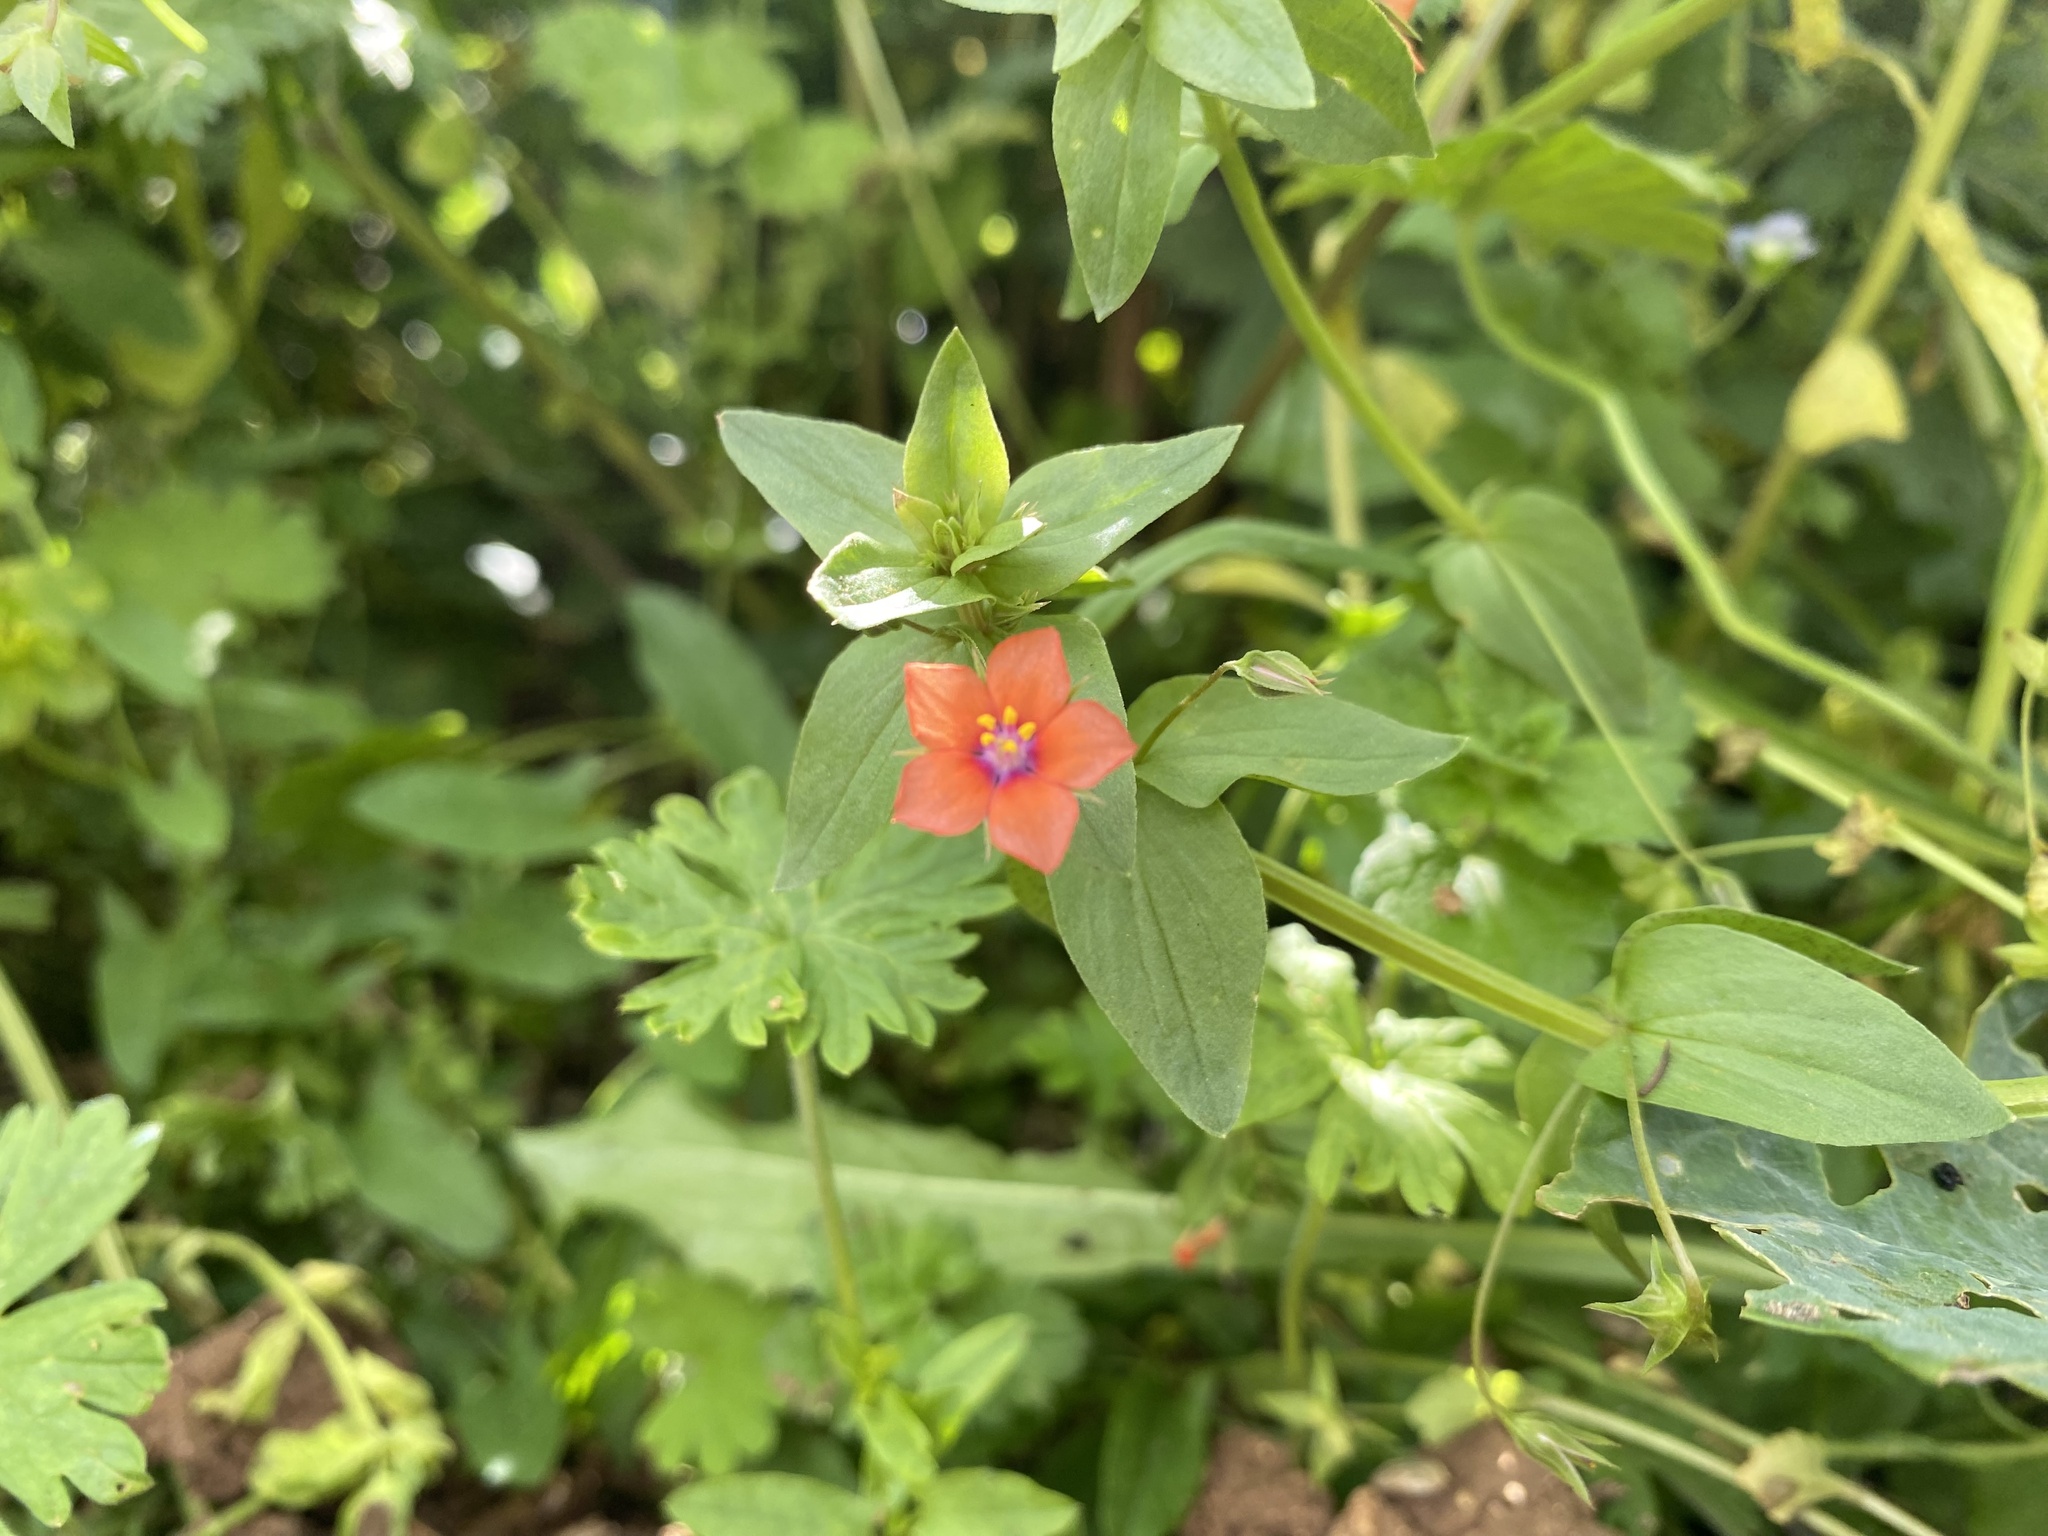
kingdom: Plantae
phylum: Tracheophyta
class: Magnoliopsida
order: Ericales
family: Primulaceae
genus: Lysimachia
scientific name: Lysimachia arvensis
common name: Scarlet pimpernel
